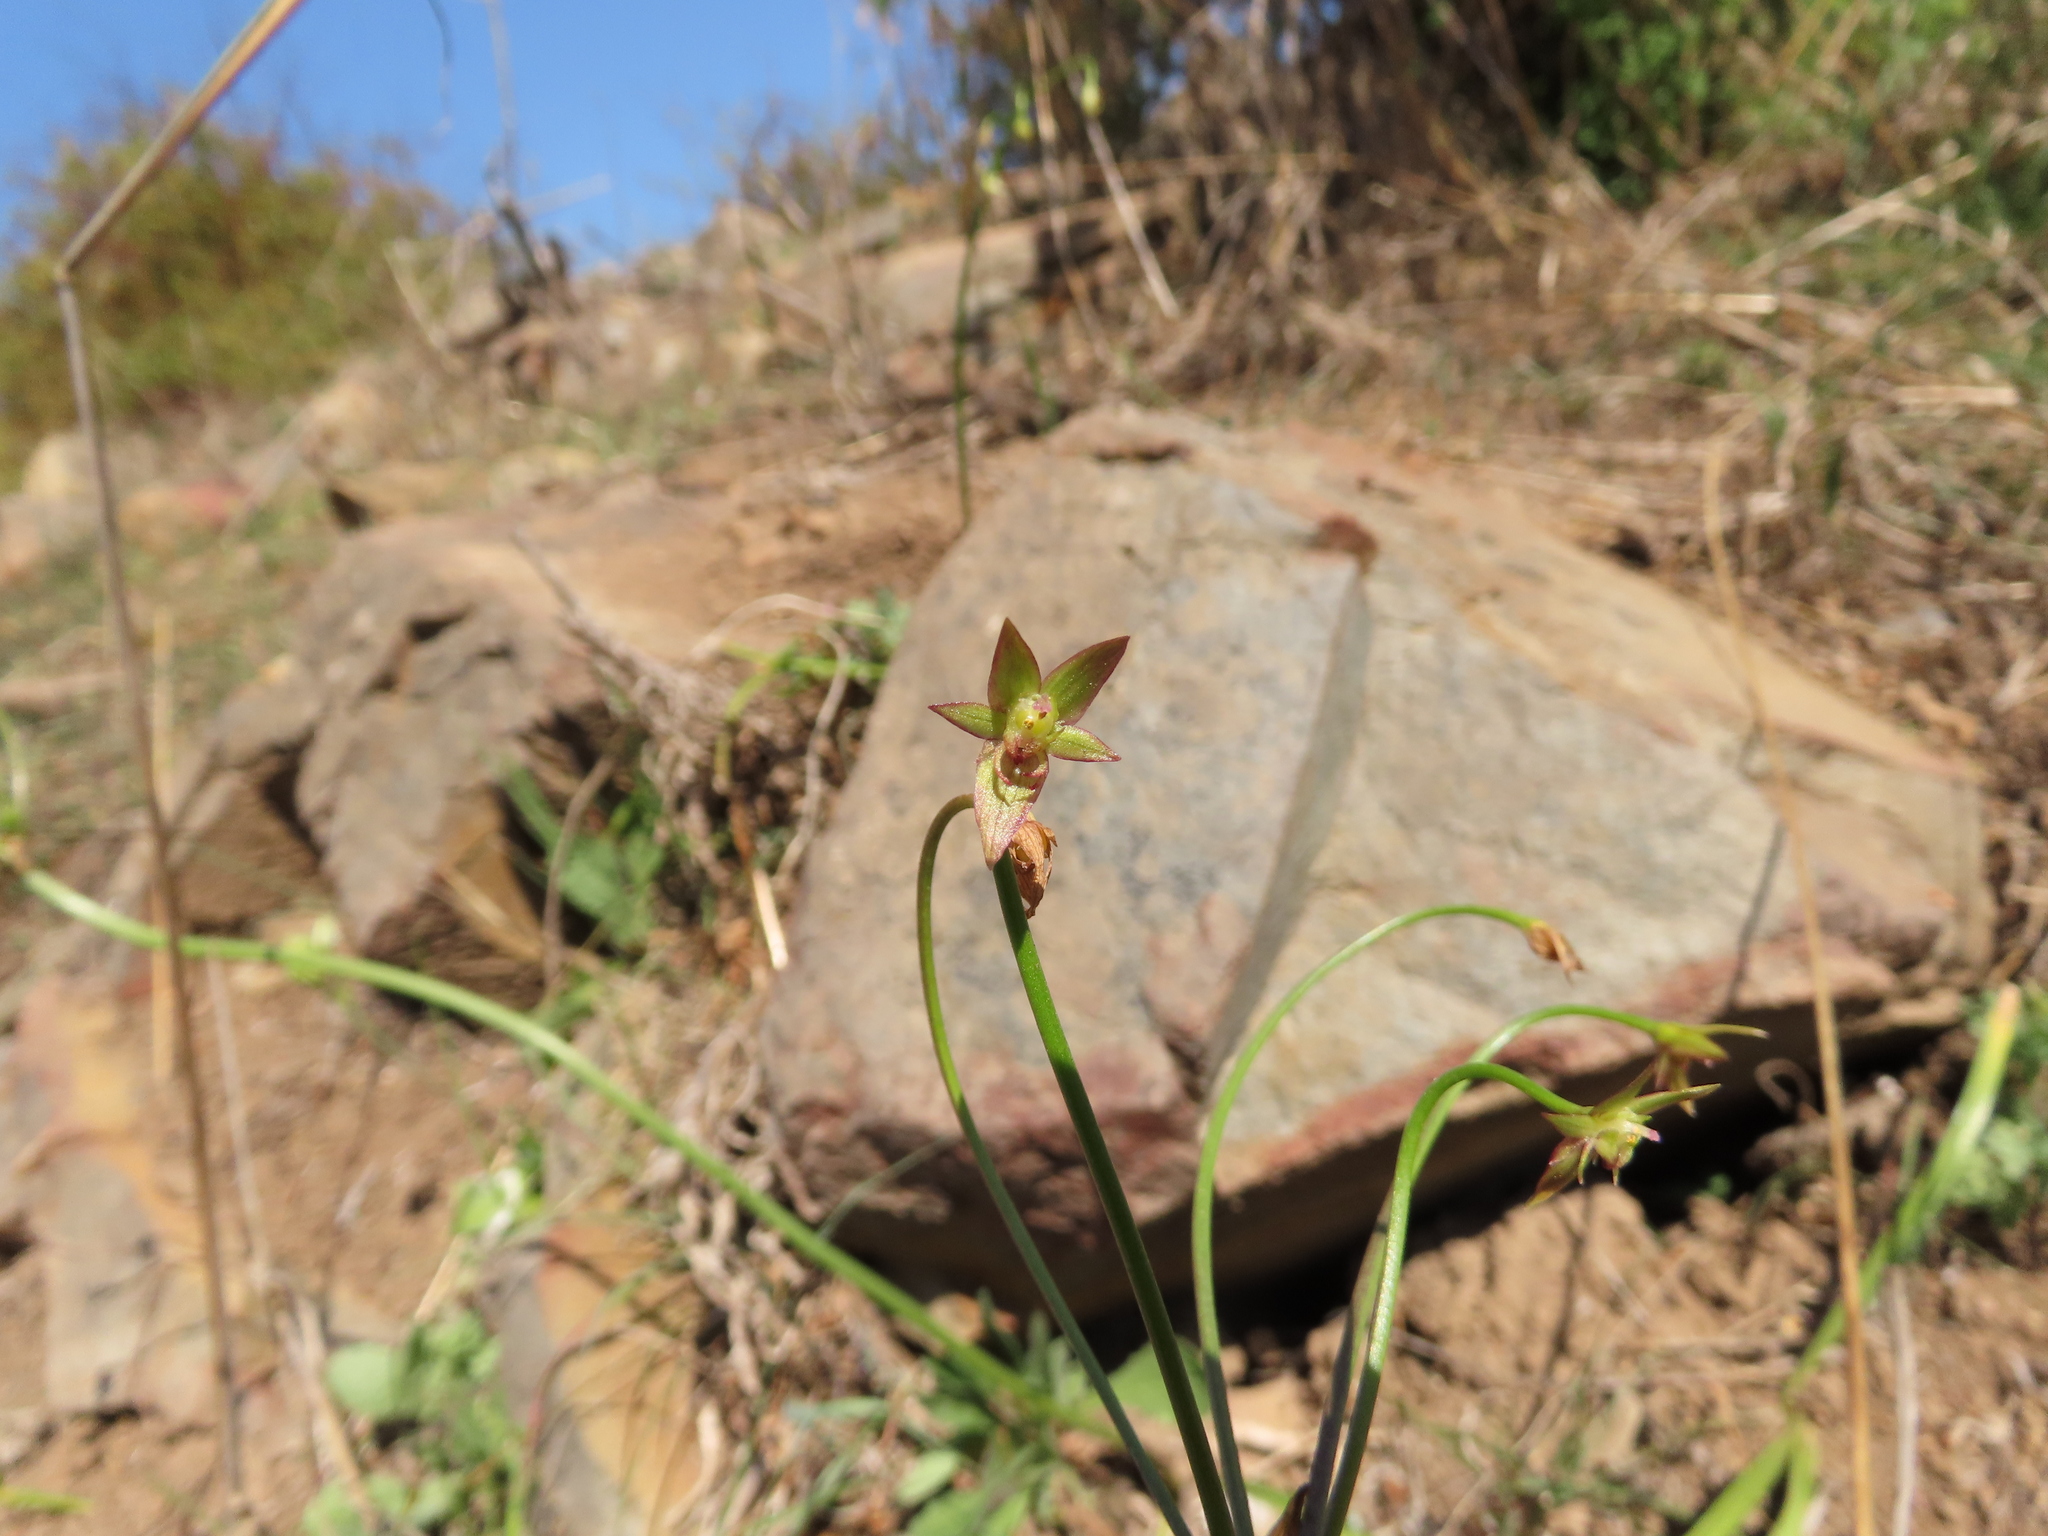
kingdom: Plantae
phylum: Tracheophyta
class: Liliopsida
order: Asparagales
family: Amaryllidaceae
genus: Gilliesia
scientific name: Gilliesia graminea
